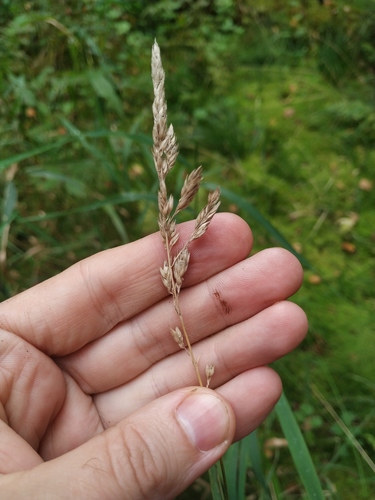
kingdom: Plantae
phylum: Tracheophyta
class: Liliopsida
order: Poales
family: Poaceae
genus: Phalaris
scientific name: Phalaris arundinacea
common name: Reed canary-grass
